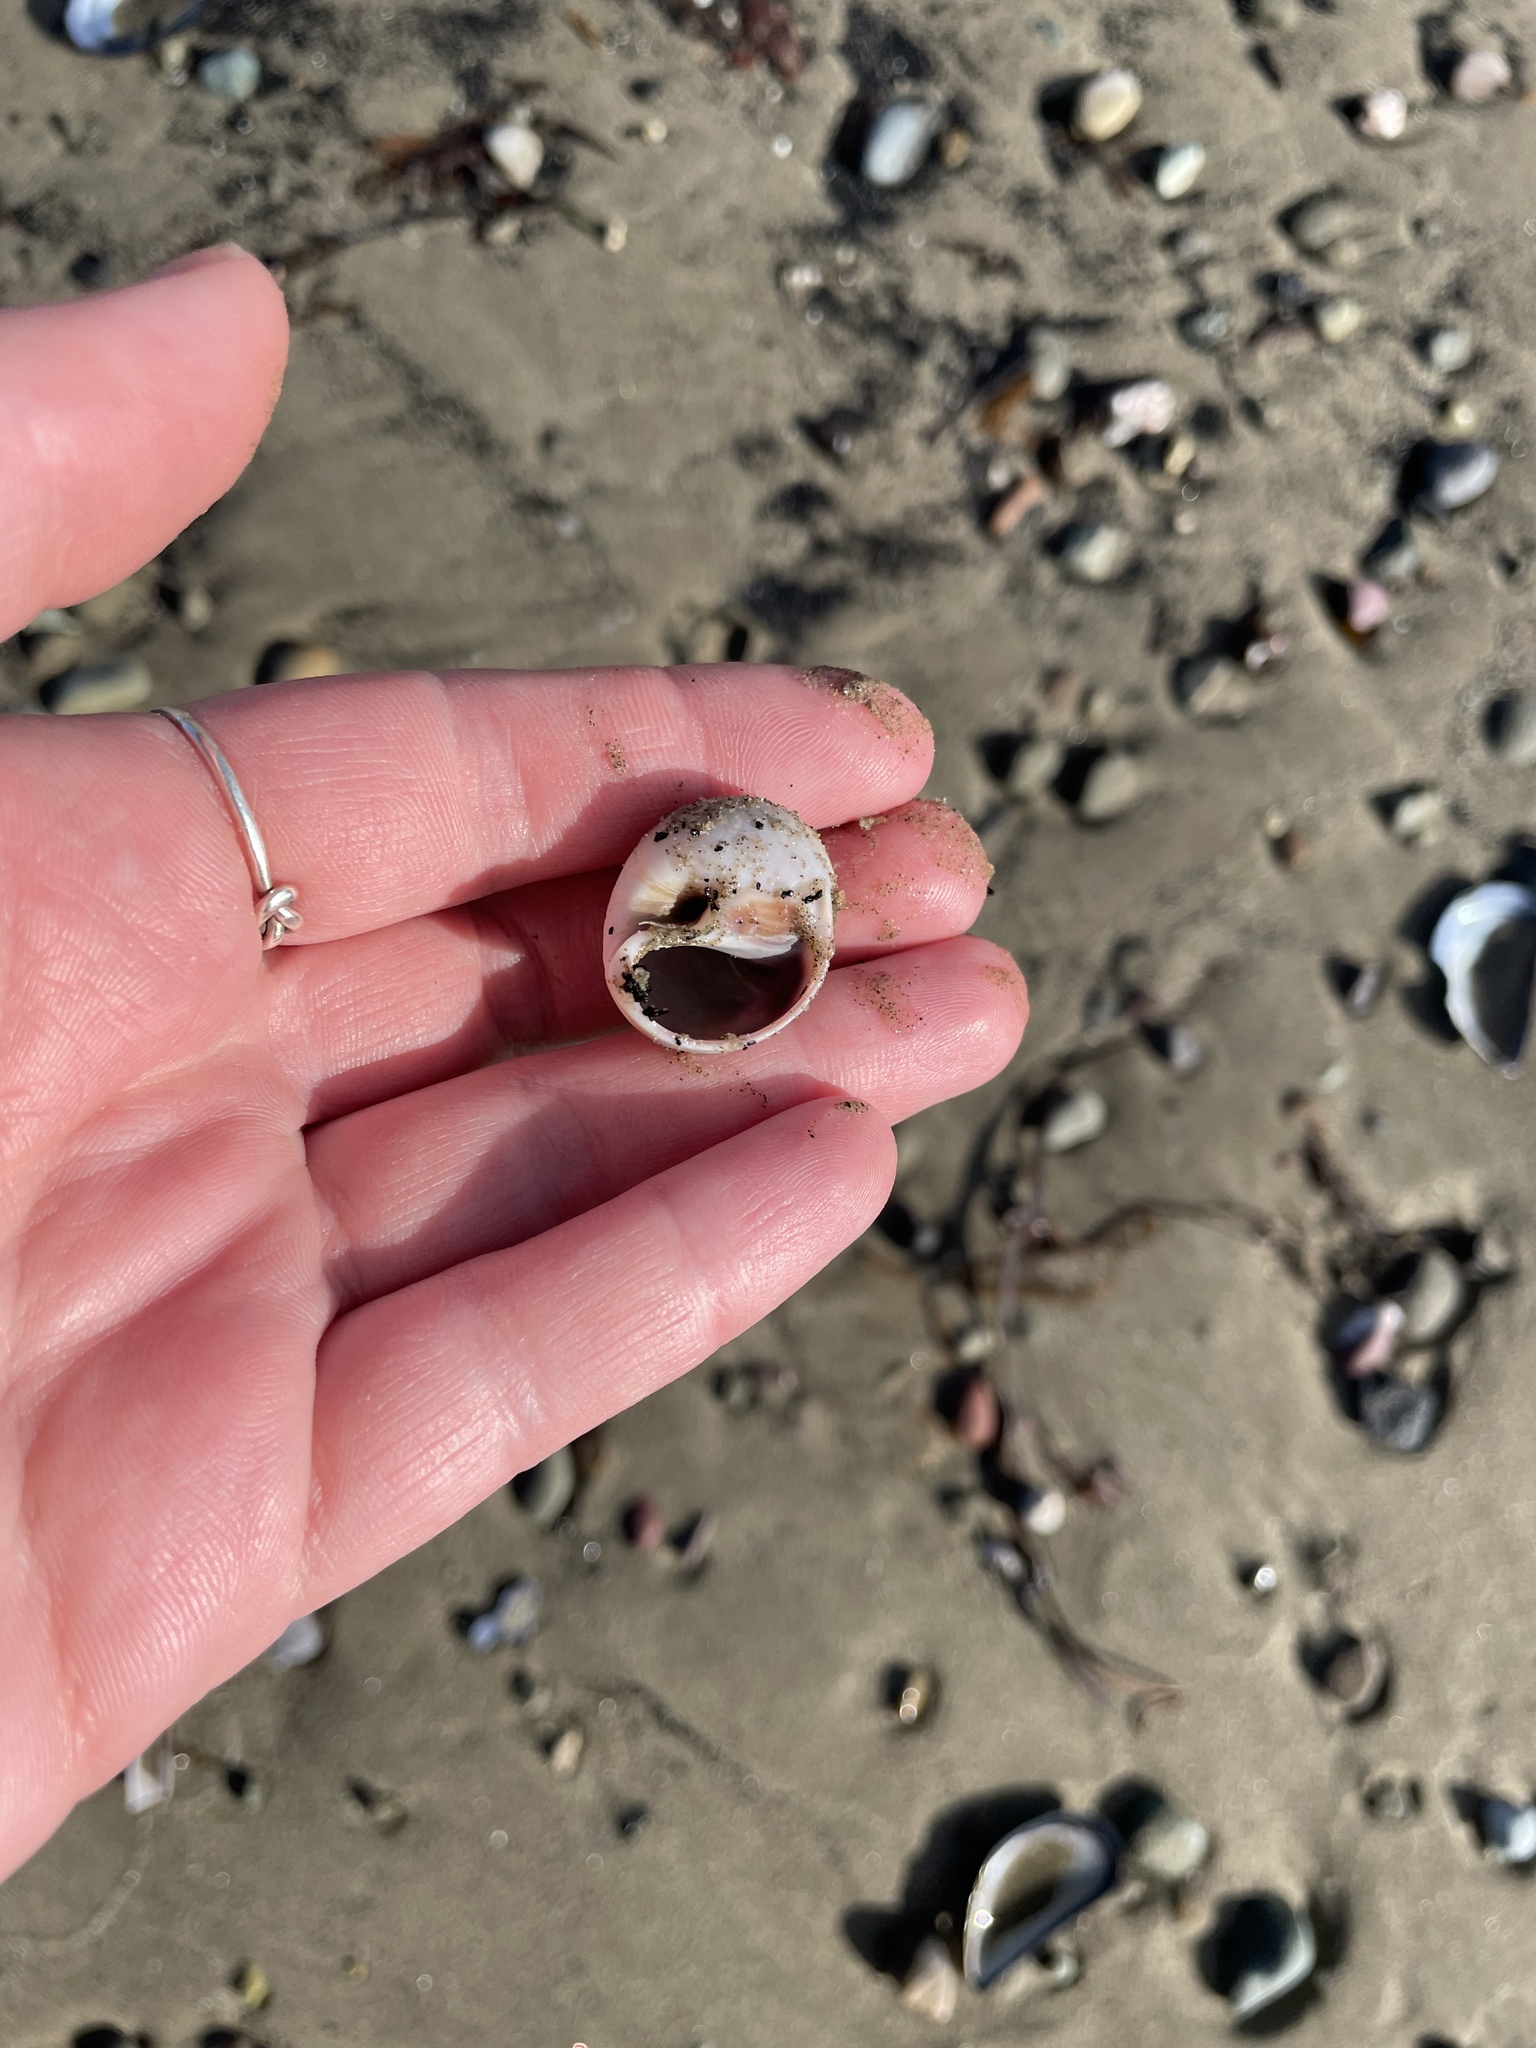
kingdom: Animalia
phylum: Mollusca
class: Gastropoda
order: Littorinimorpha
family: Naticidae
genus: Euspira
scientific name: Euspira heros
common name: Common northern moonsnail
